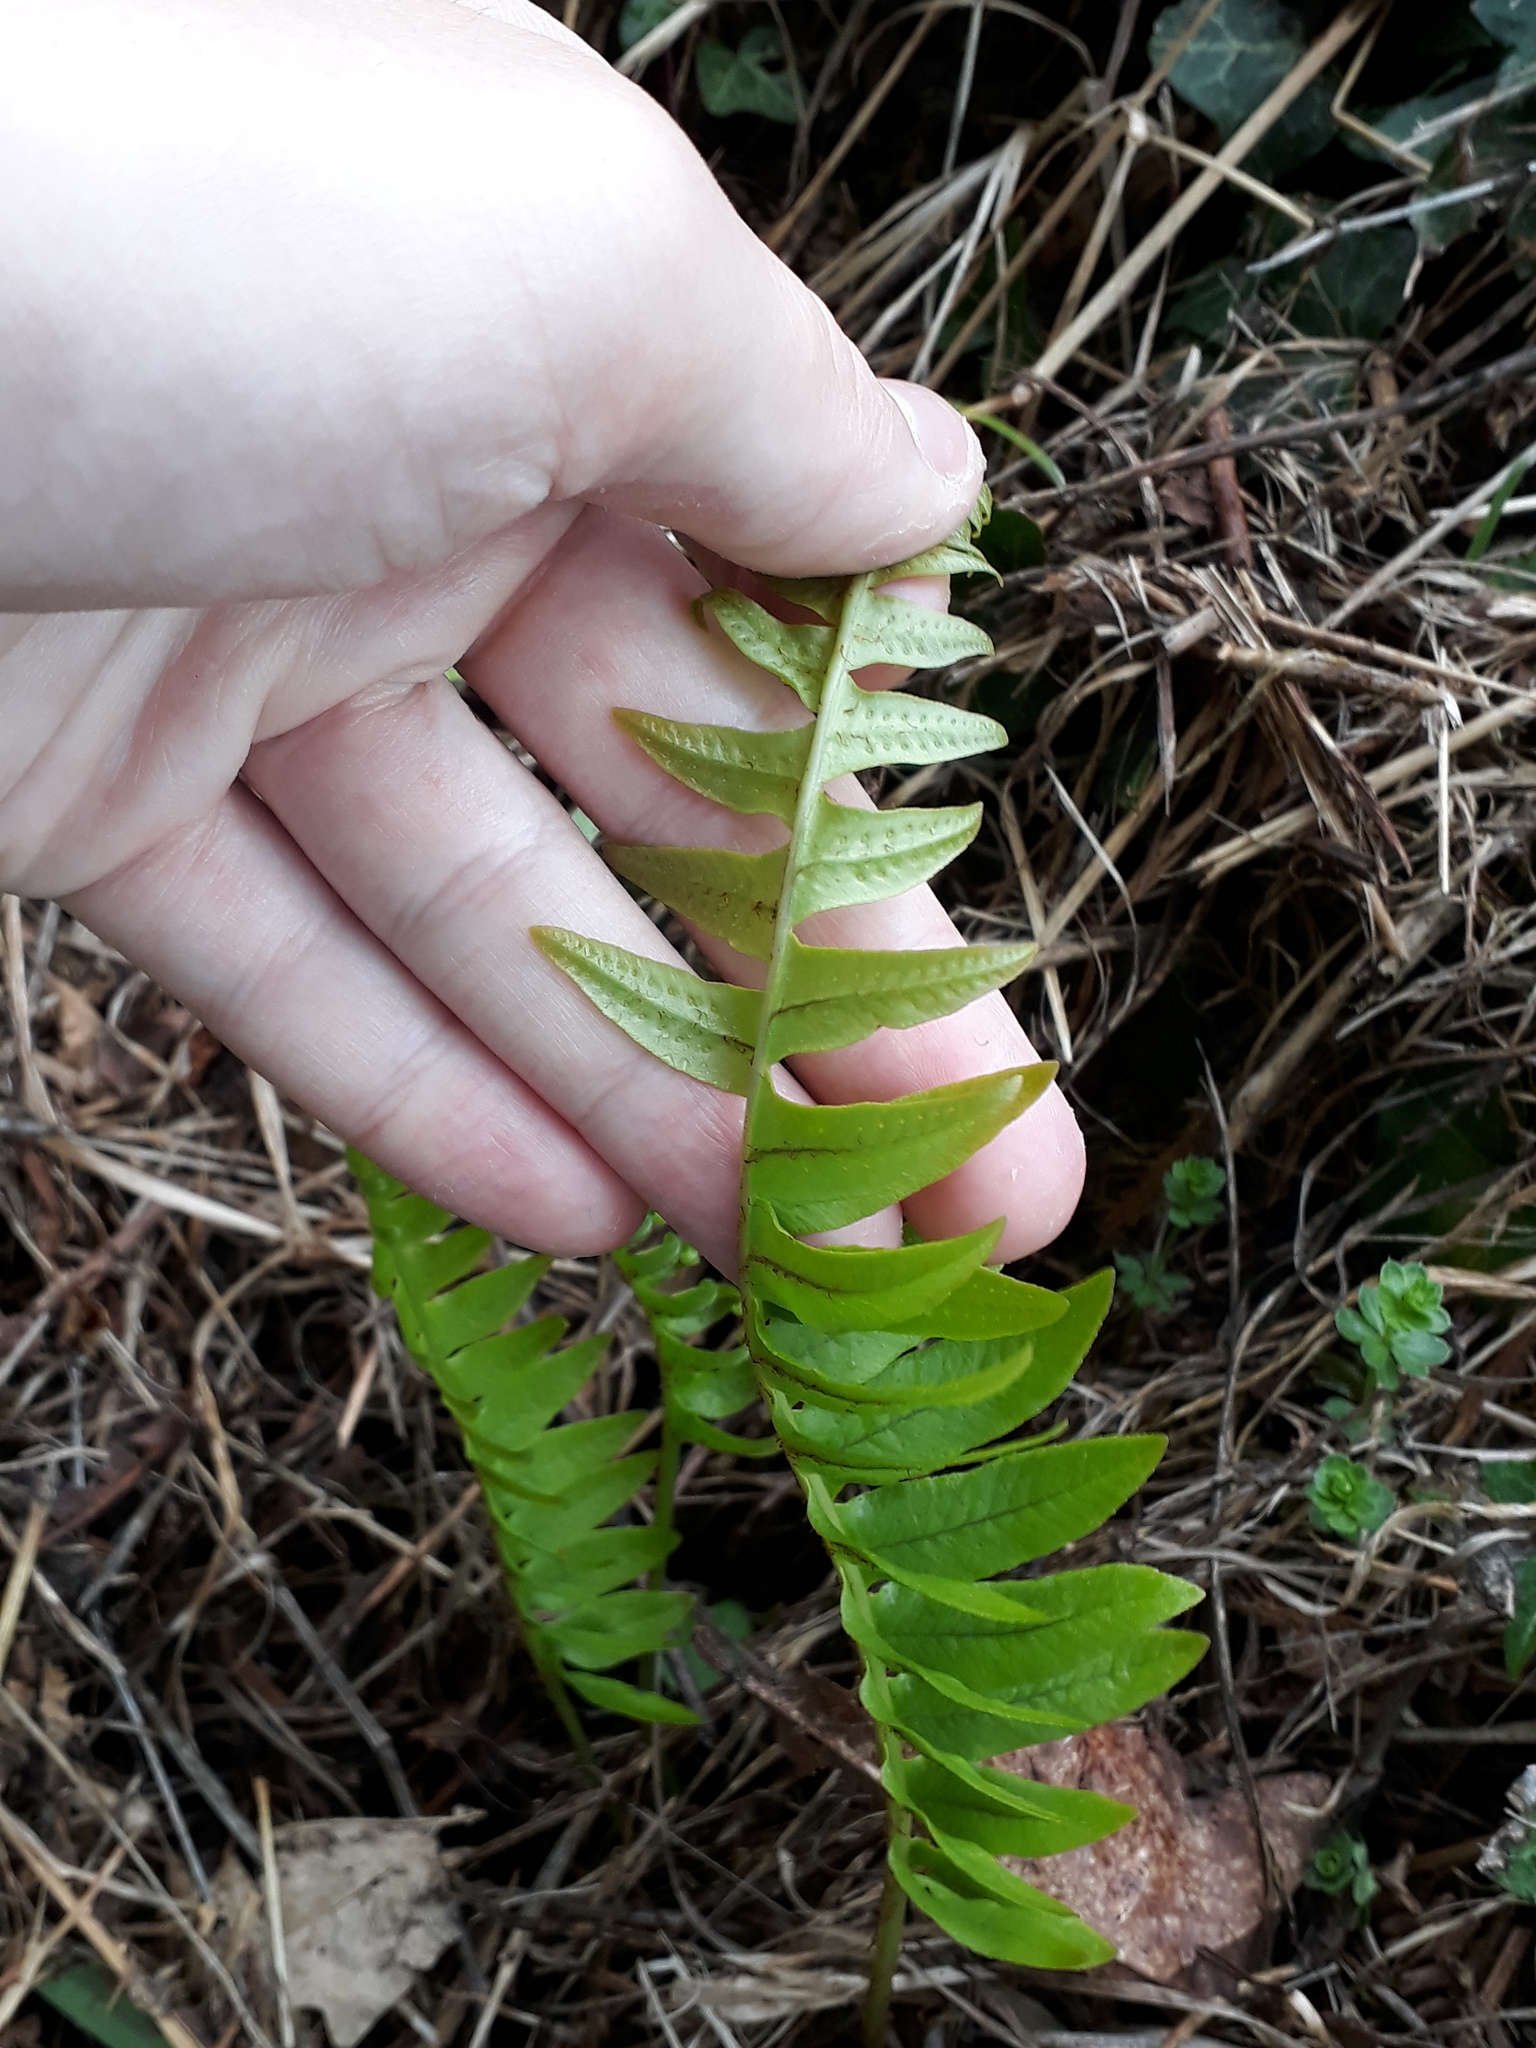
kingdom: Plantae
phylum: Tracheophyta
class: Polypodiopsida
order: Polypodiales
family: Polypodiaceae
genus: Polypodium
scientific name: Polypodium vulgare
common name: Common polypody
